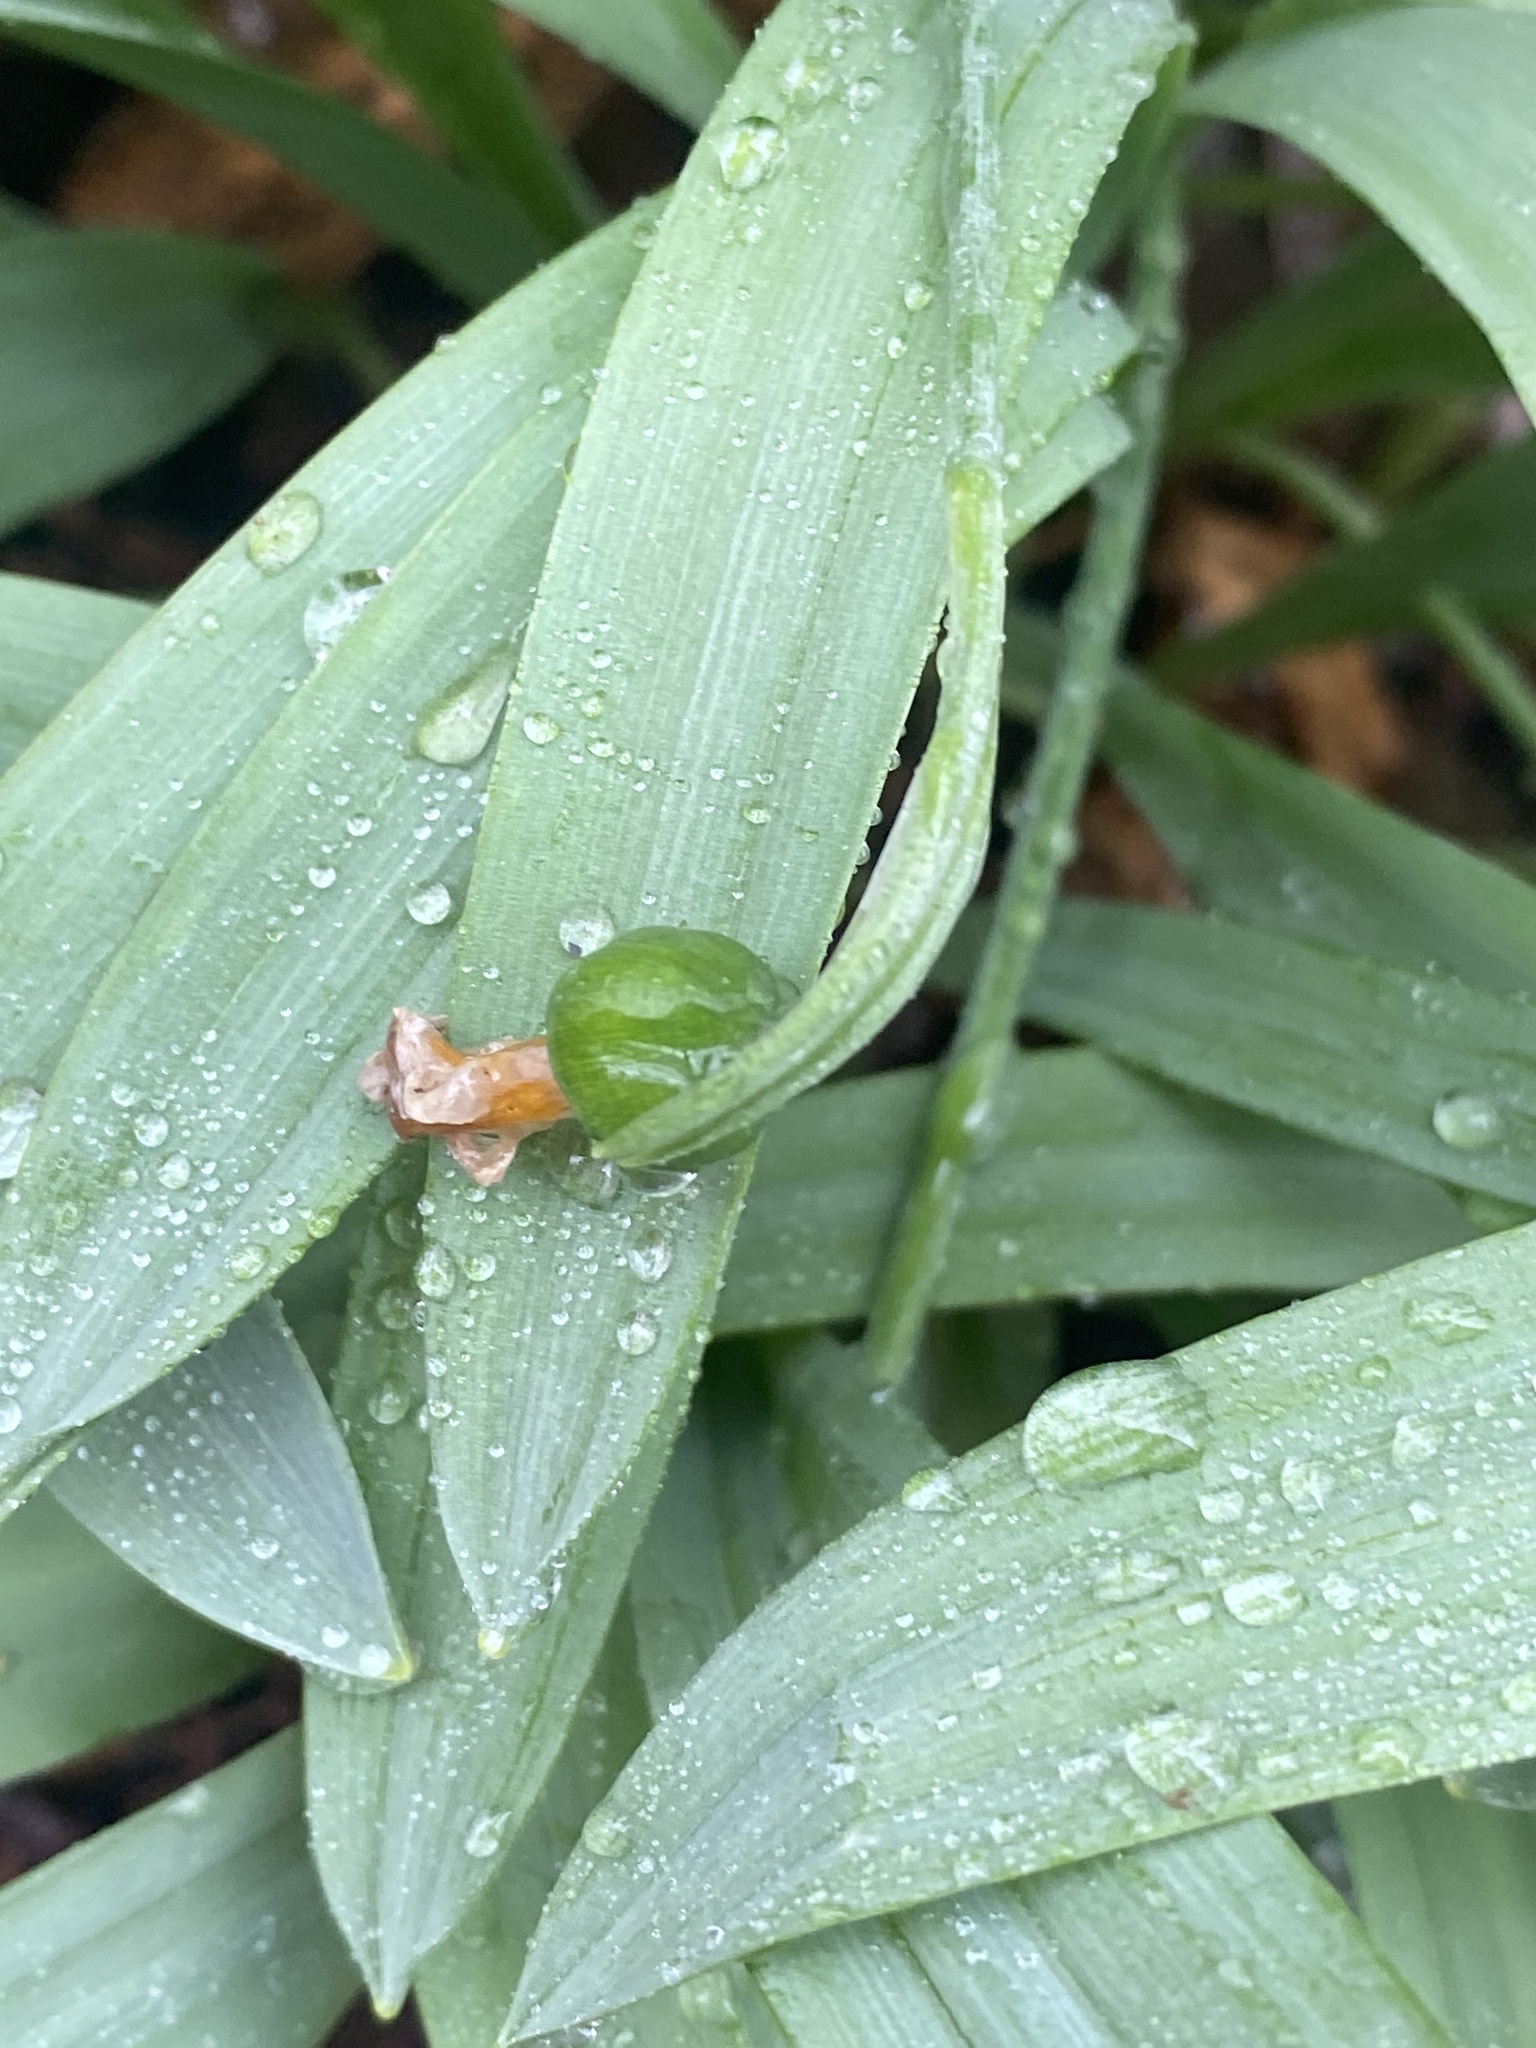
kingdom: Plantae
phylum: Tracheophyta
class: Liliopsida
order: Asparagales
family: Amaryllidaceae
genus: Galanthus
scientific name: Galanthus elwesii
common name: Greater snowdrop
